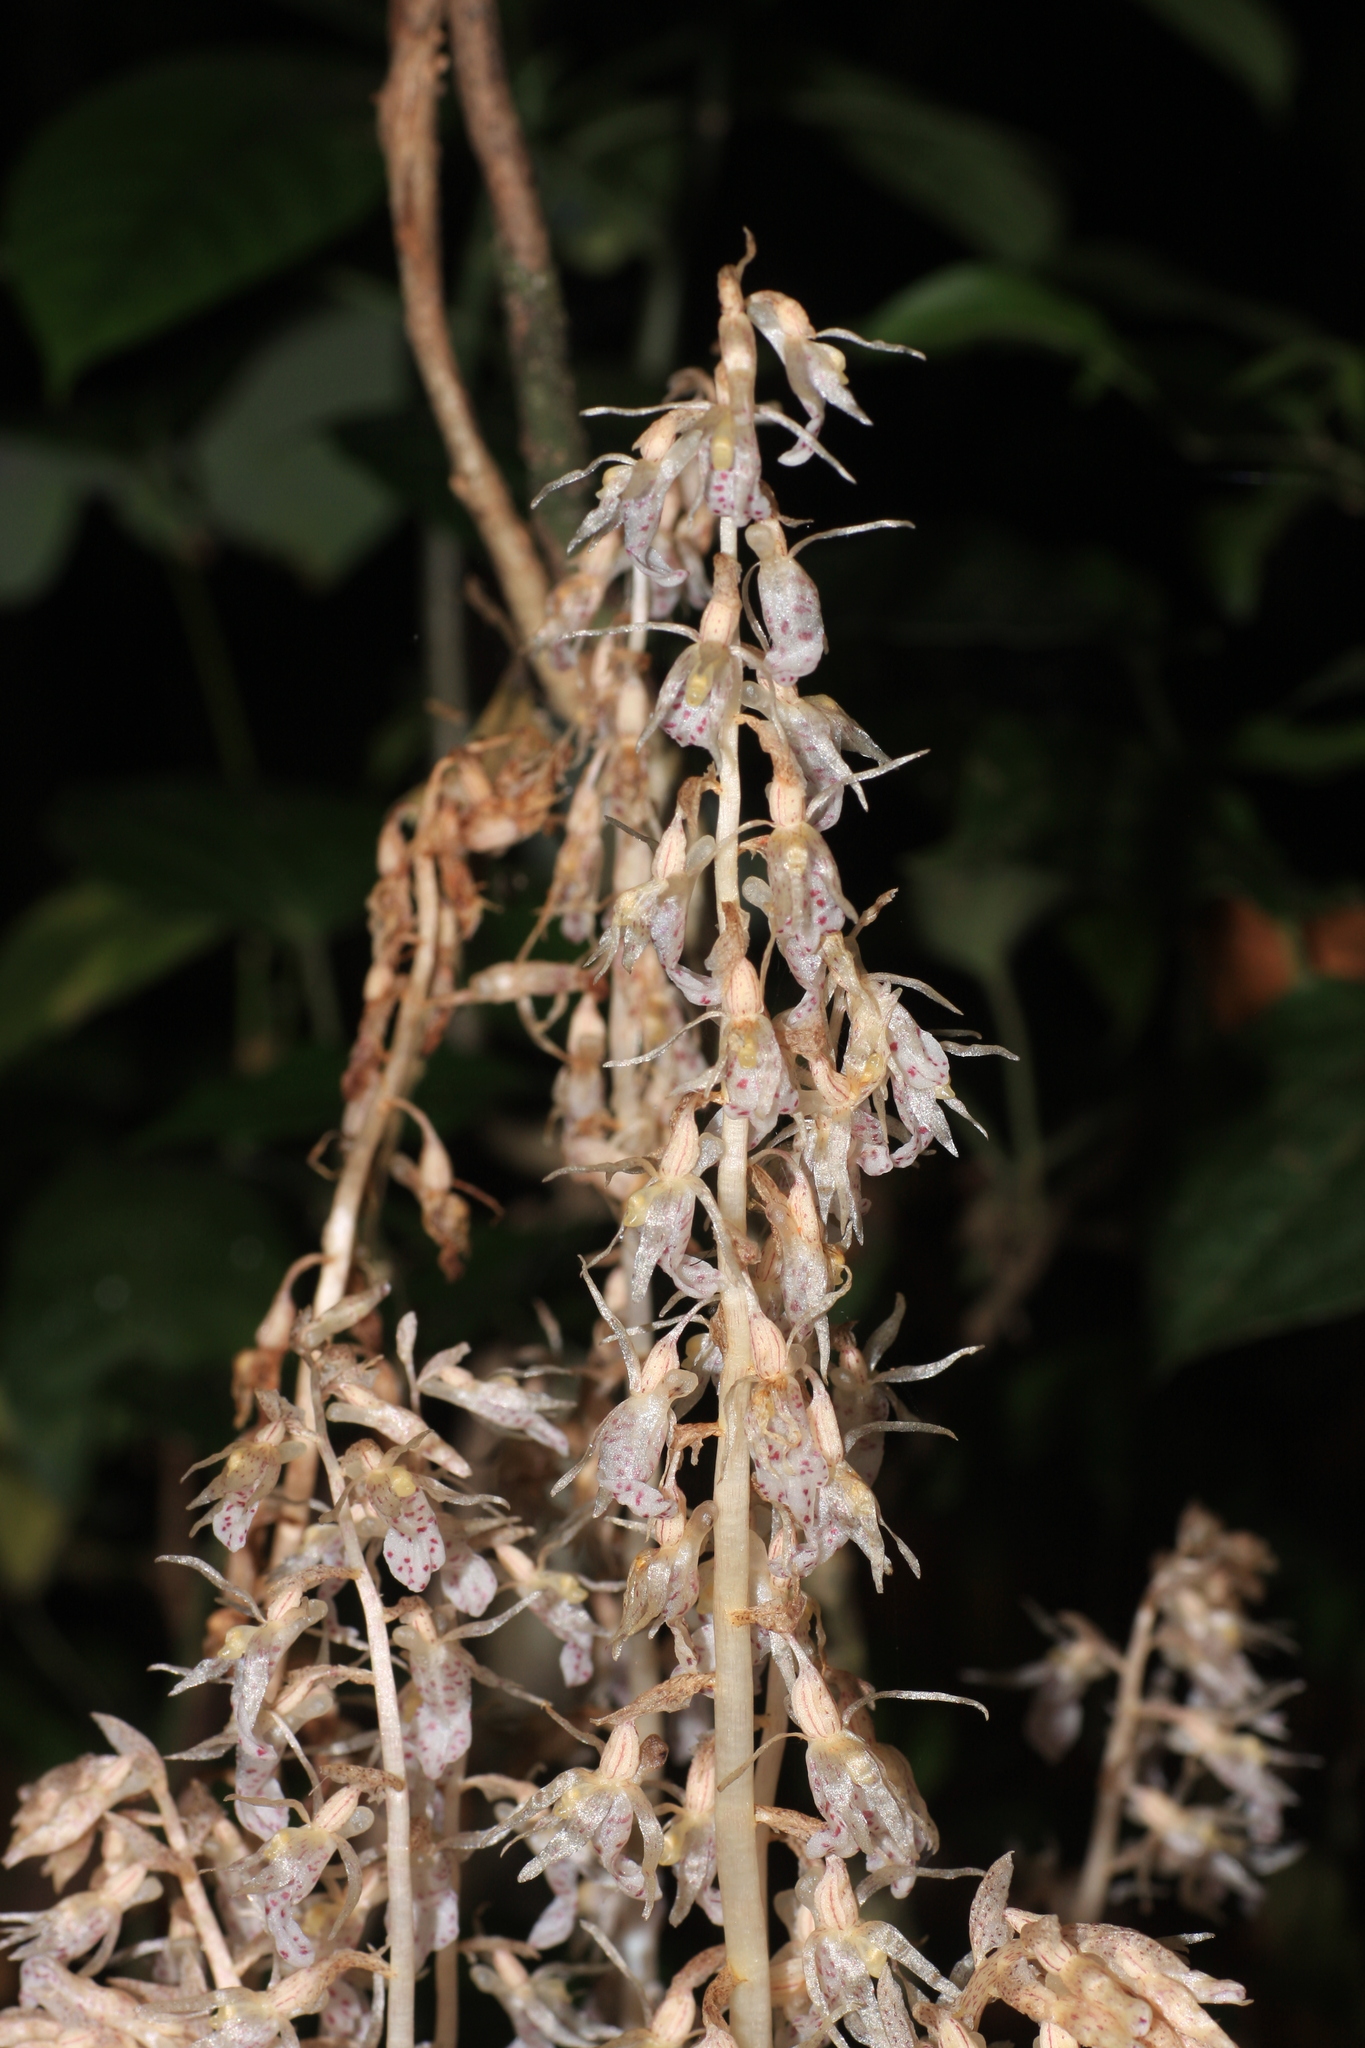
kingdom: Plantae
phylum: Tracheophyta
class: Liliopsida
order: Asparagales
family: Orchidaceae
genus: Epipogium
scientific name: Epipogium roseum
